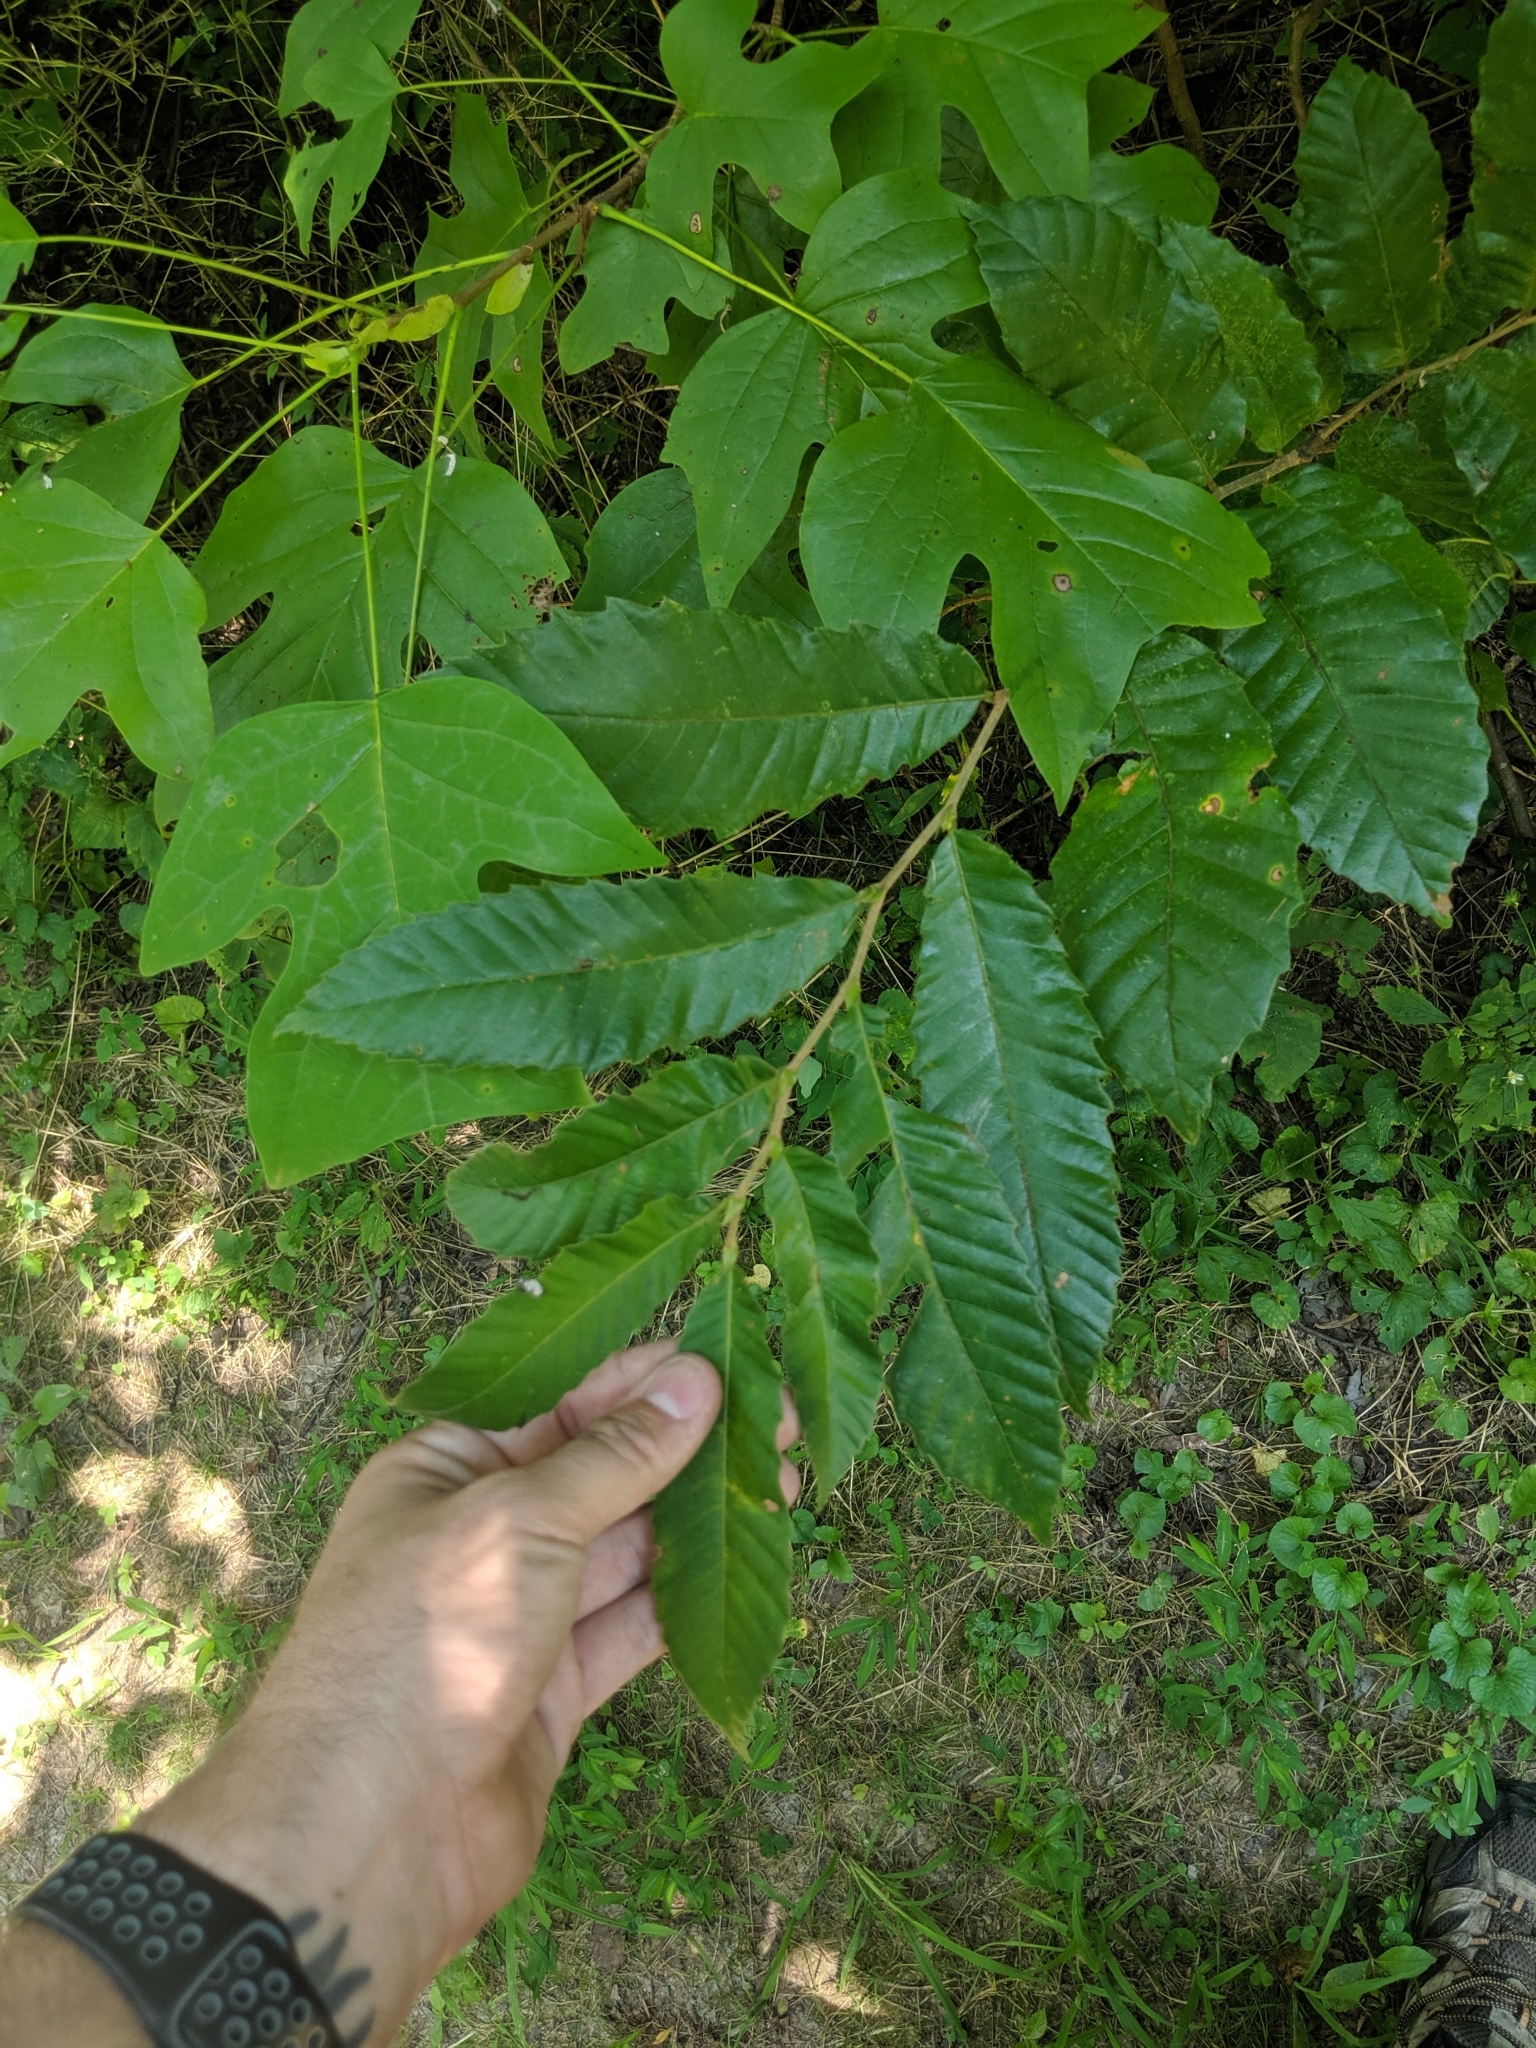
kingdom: Plantae
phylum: Tracheophyta
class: Magnoliopsida
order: Fagales
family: Fagaceae
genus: Castanea
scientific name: Castanea mollissima
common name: Chinese chestnut
